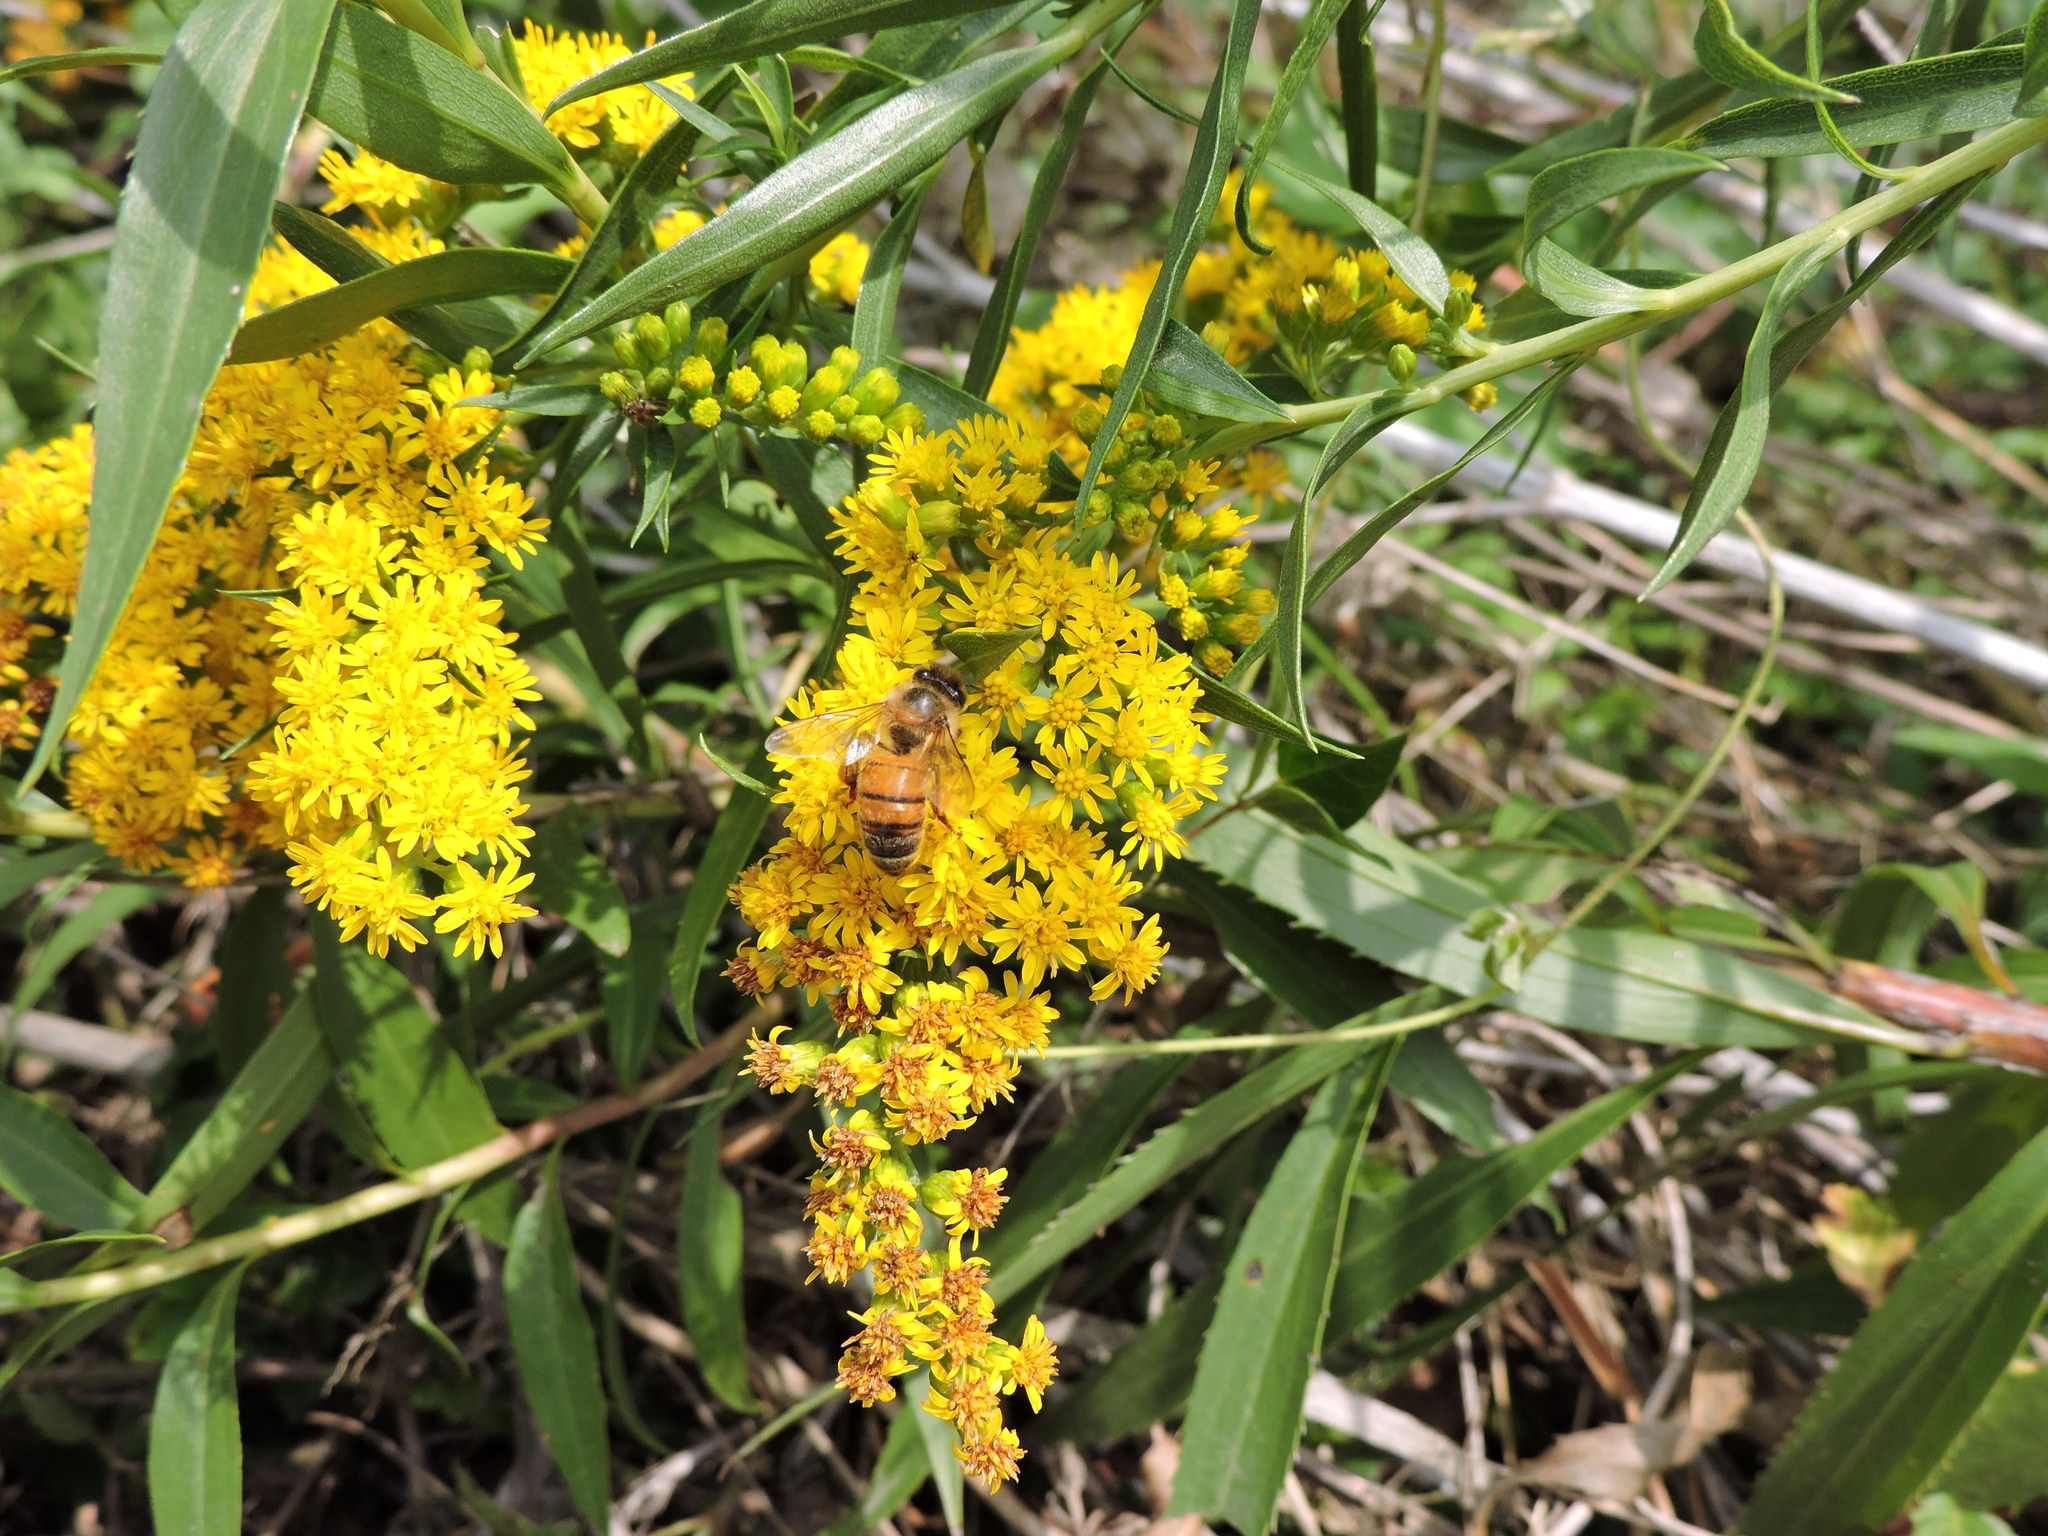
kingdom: Animalia
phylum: Arthropoda
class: Insecta
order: Hymenoptera
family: Apidae
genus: Apis
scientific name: Apis mellifera
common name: Honey bee
